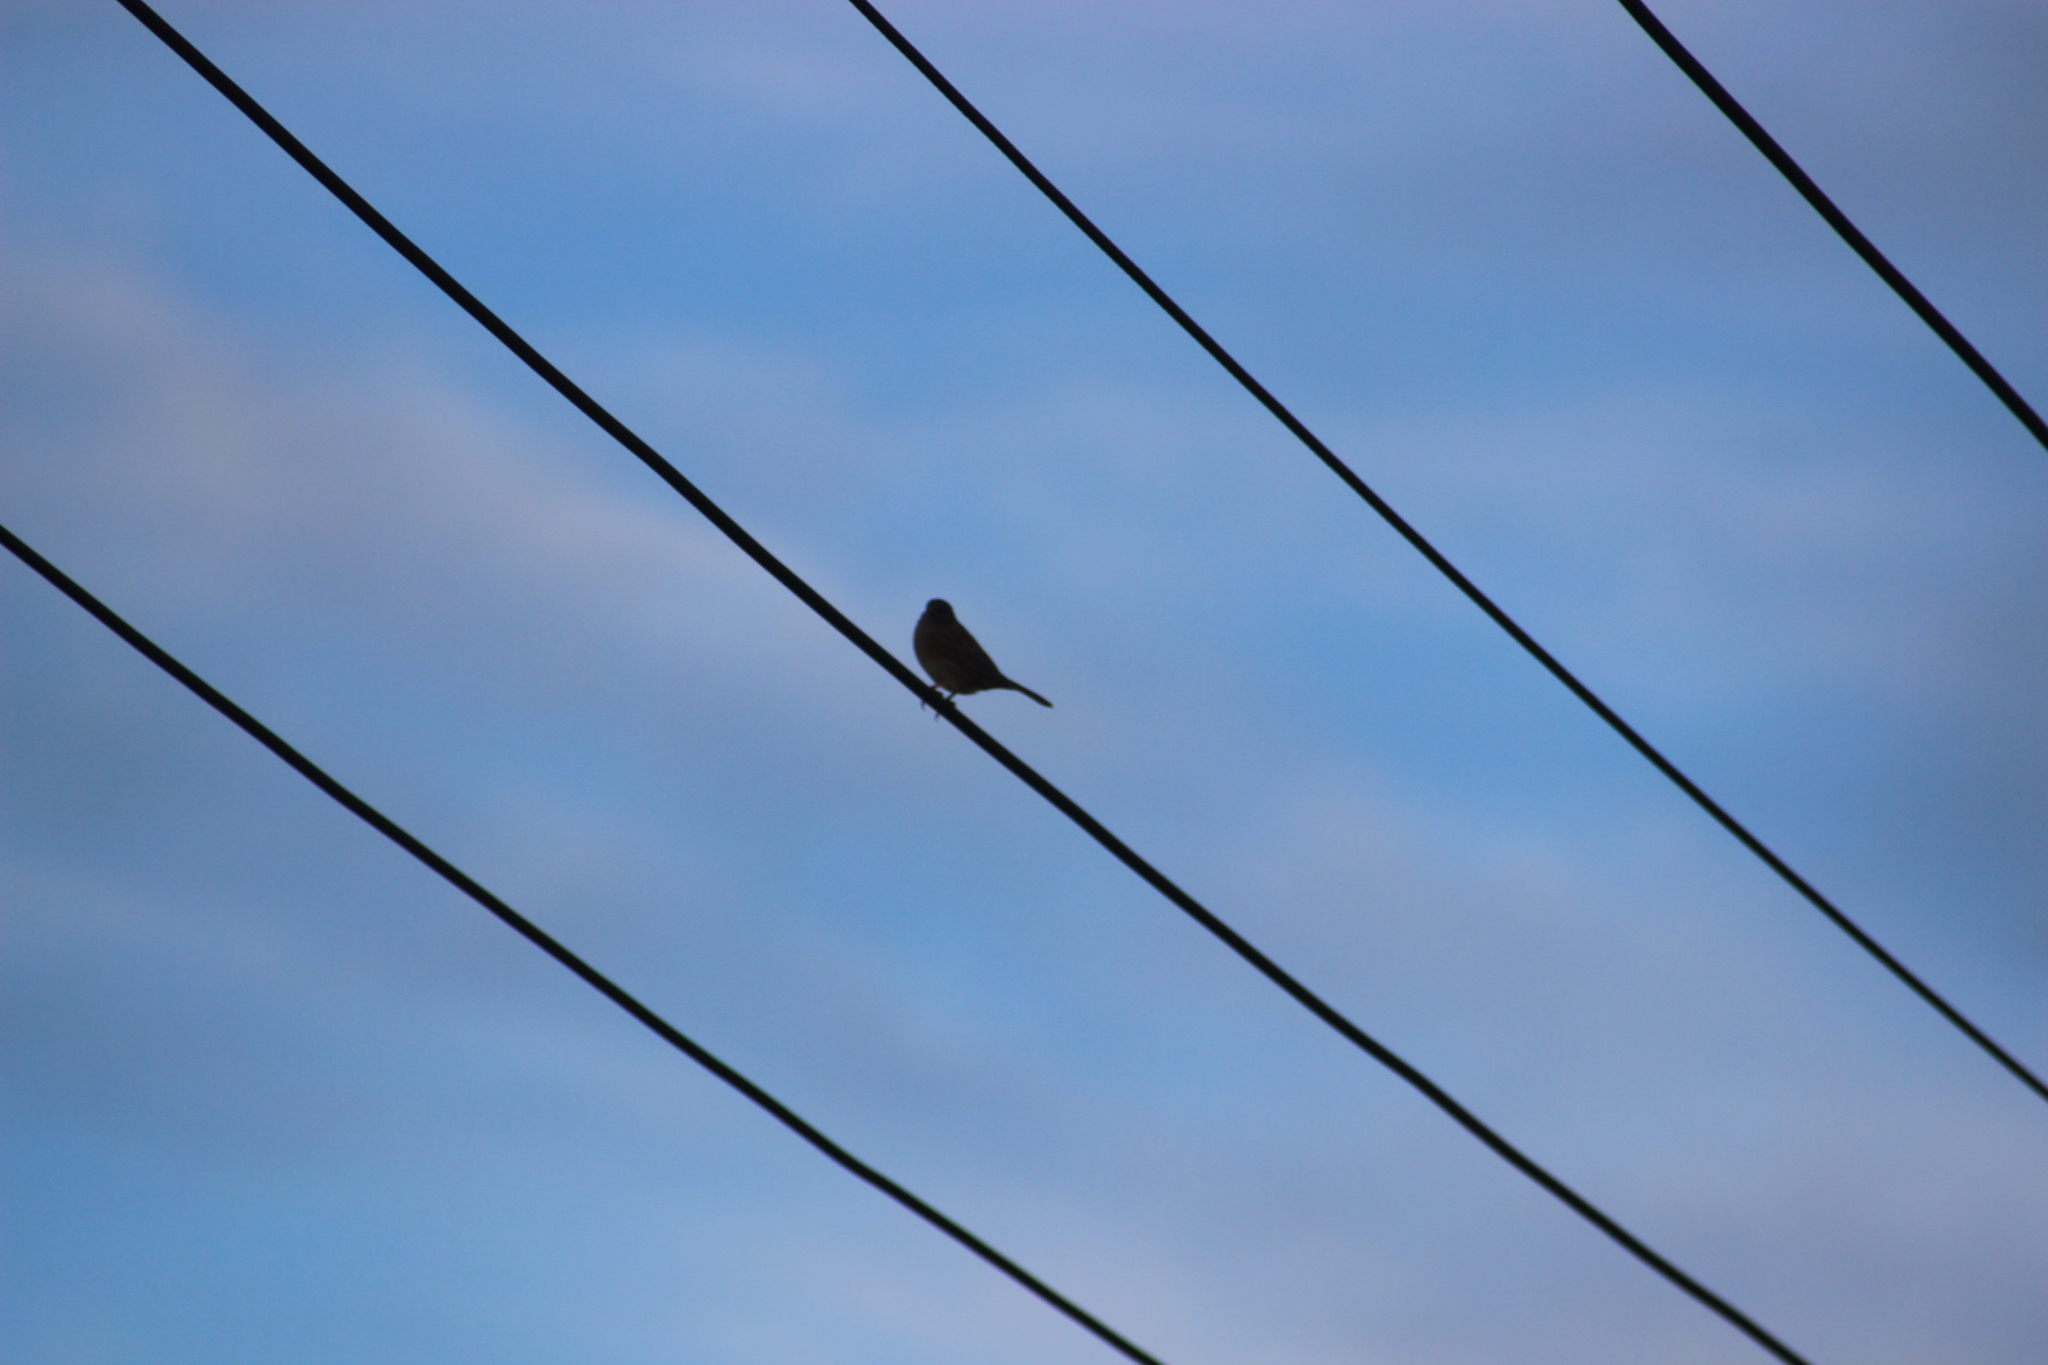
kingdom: Animalia
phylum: Chordata
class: Aves
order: Passeriformes
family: Prunellidae
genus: Prunella
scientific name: Prunella modularis
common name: Dunnock
